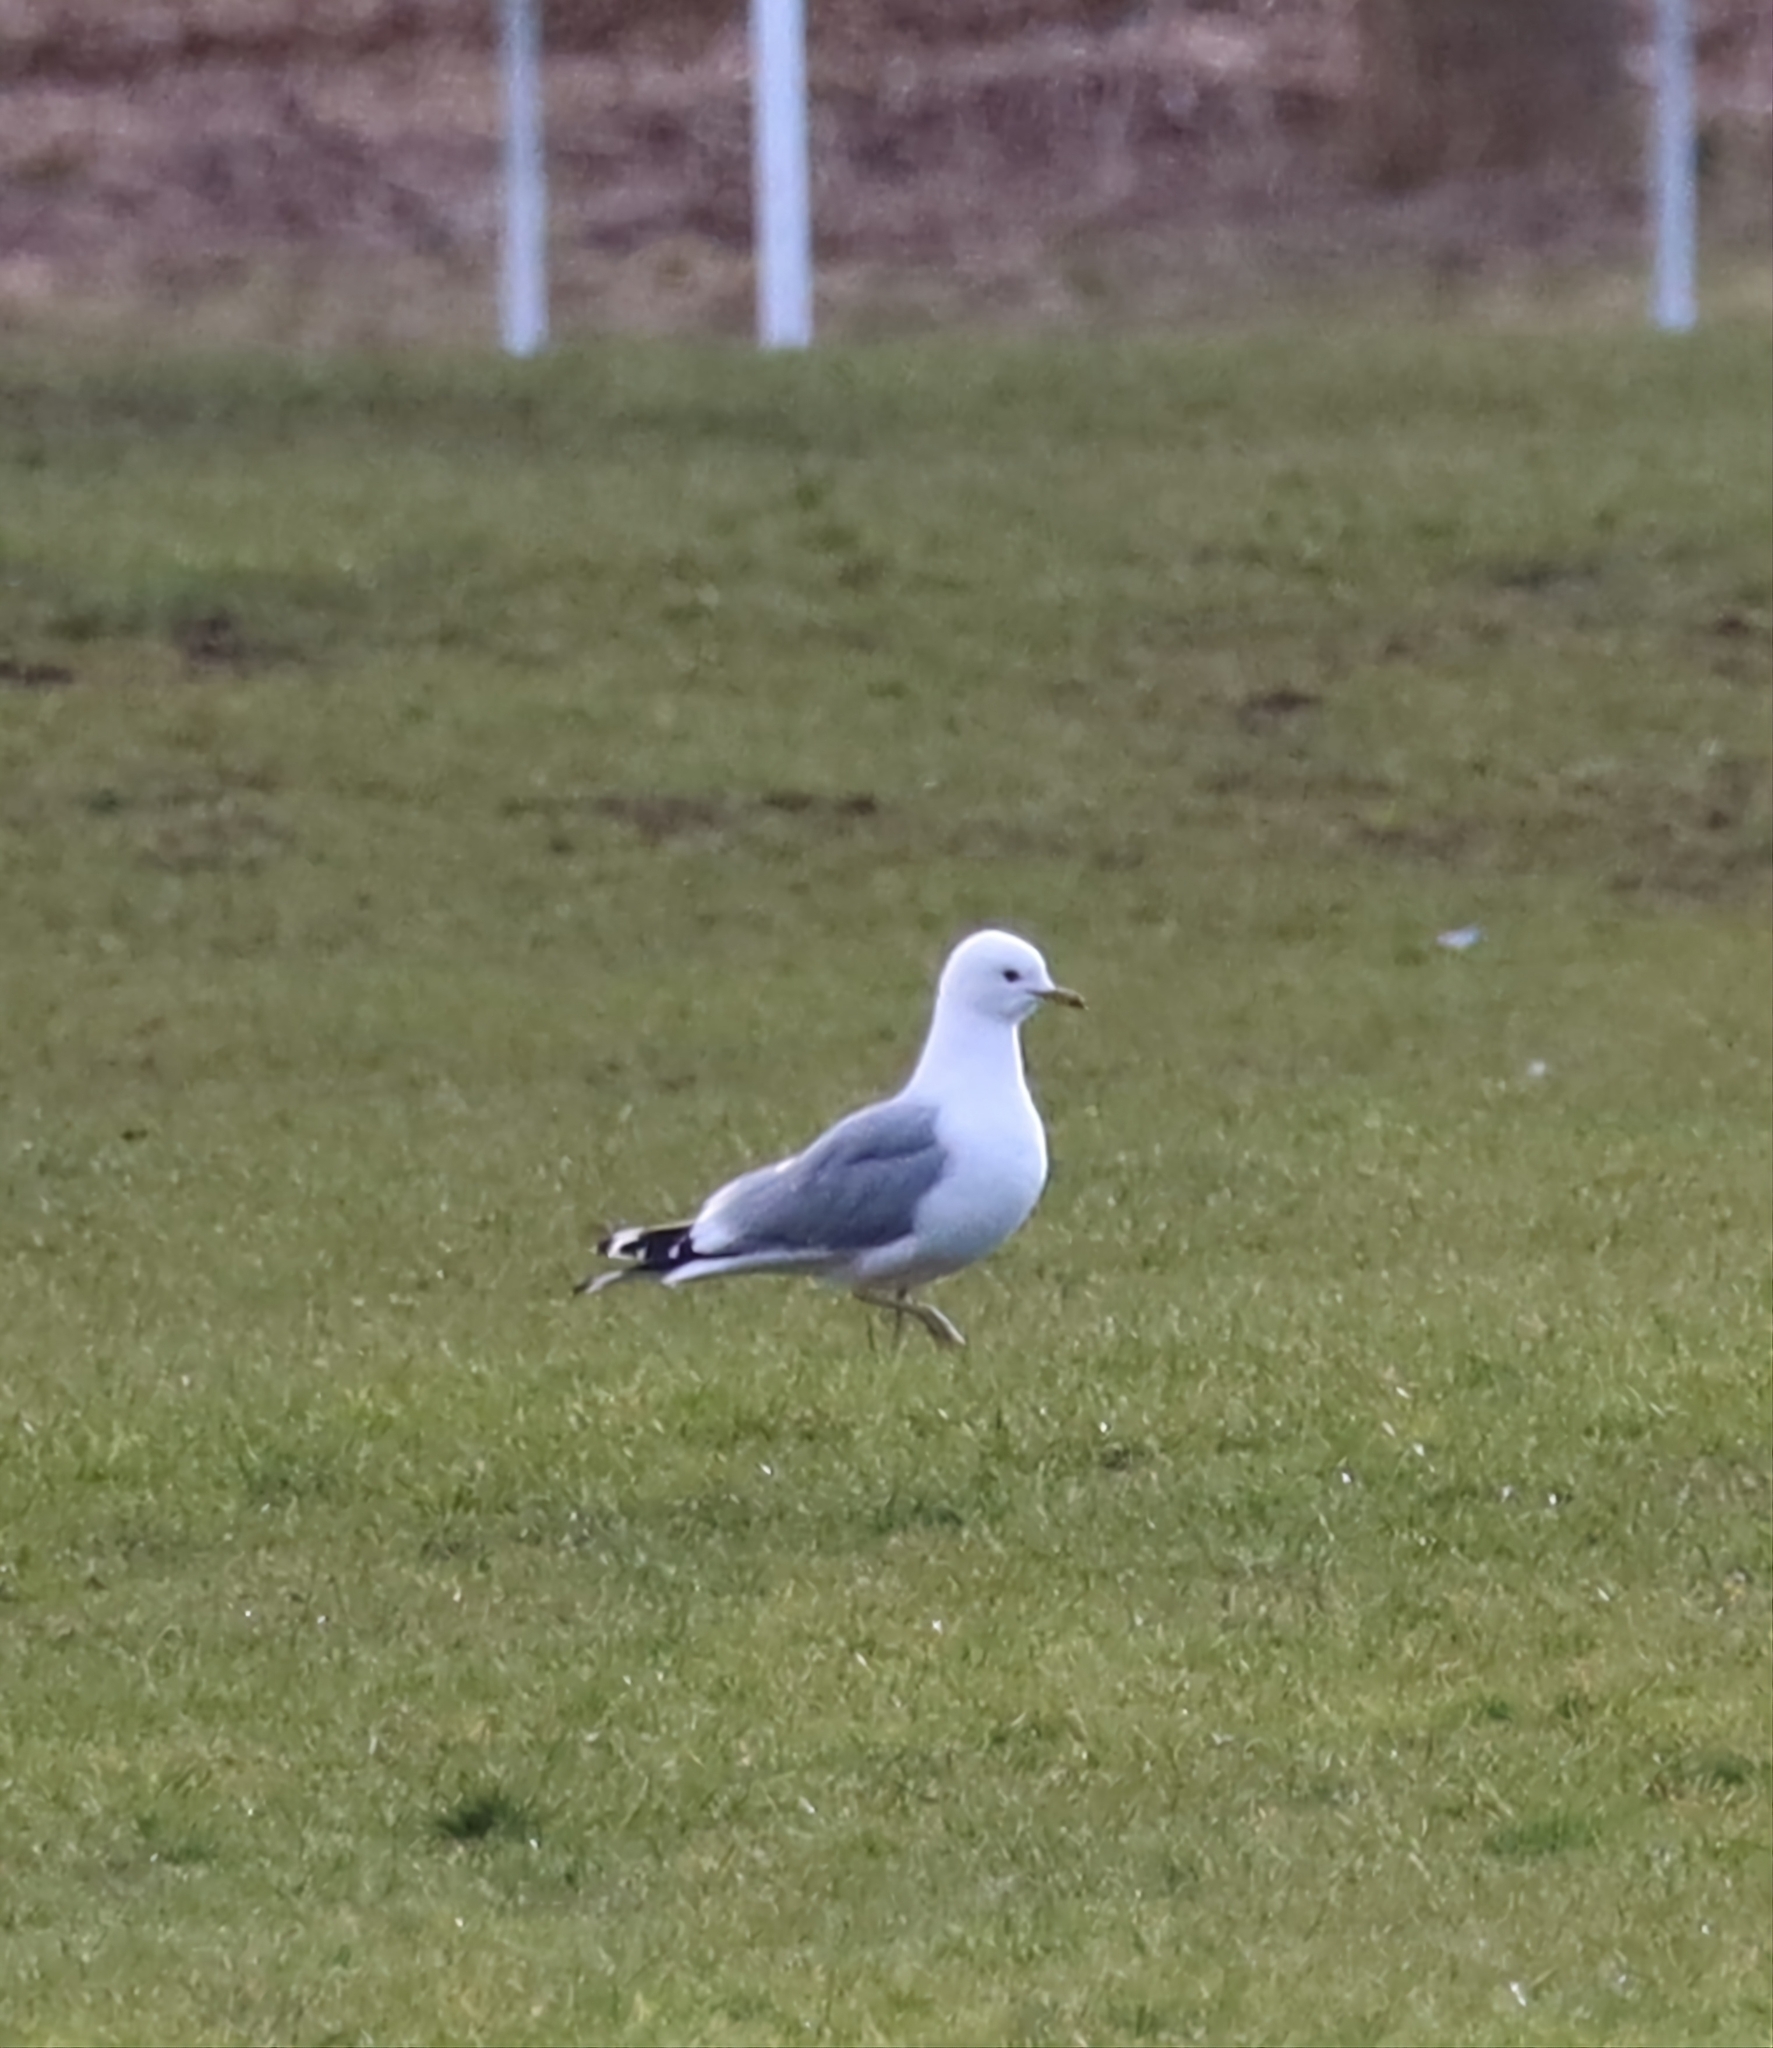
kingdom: Animalia
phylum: Chordata
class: Aves
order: Charadriiformes
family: Laridae
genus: Larus
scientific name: Larus canus
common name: Mew gull
